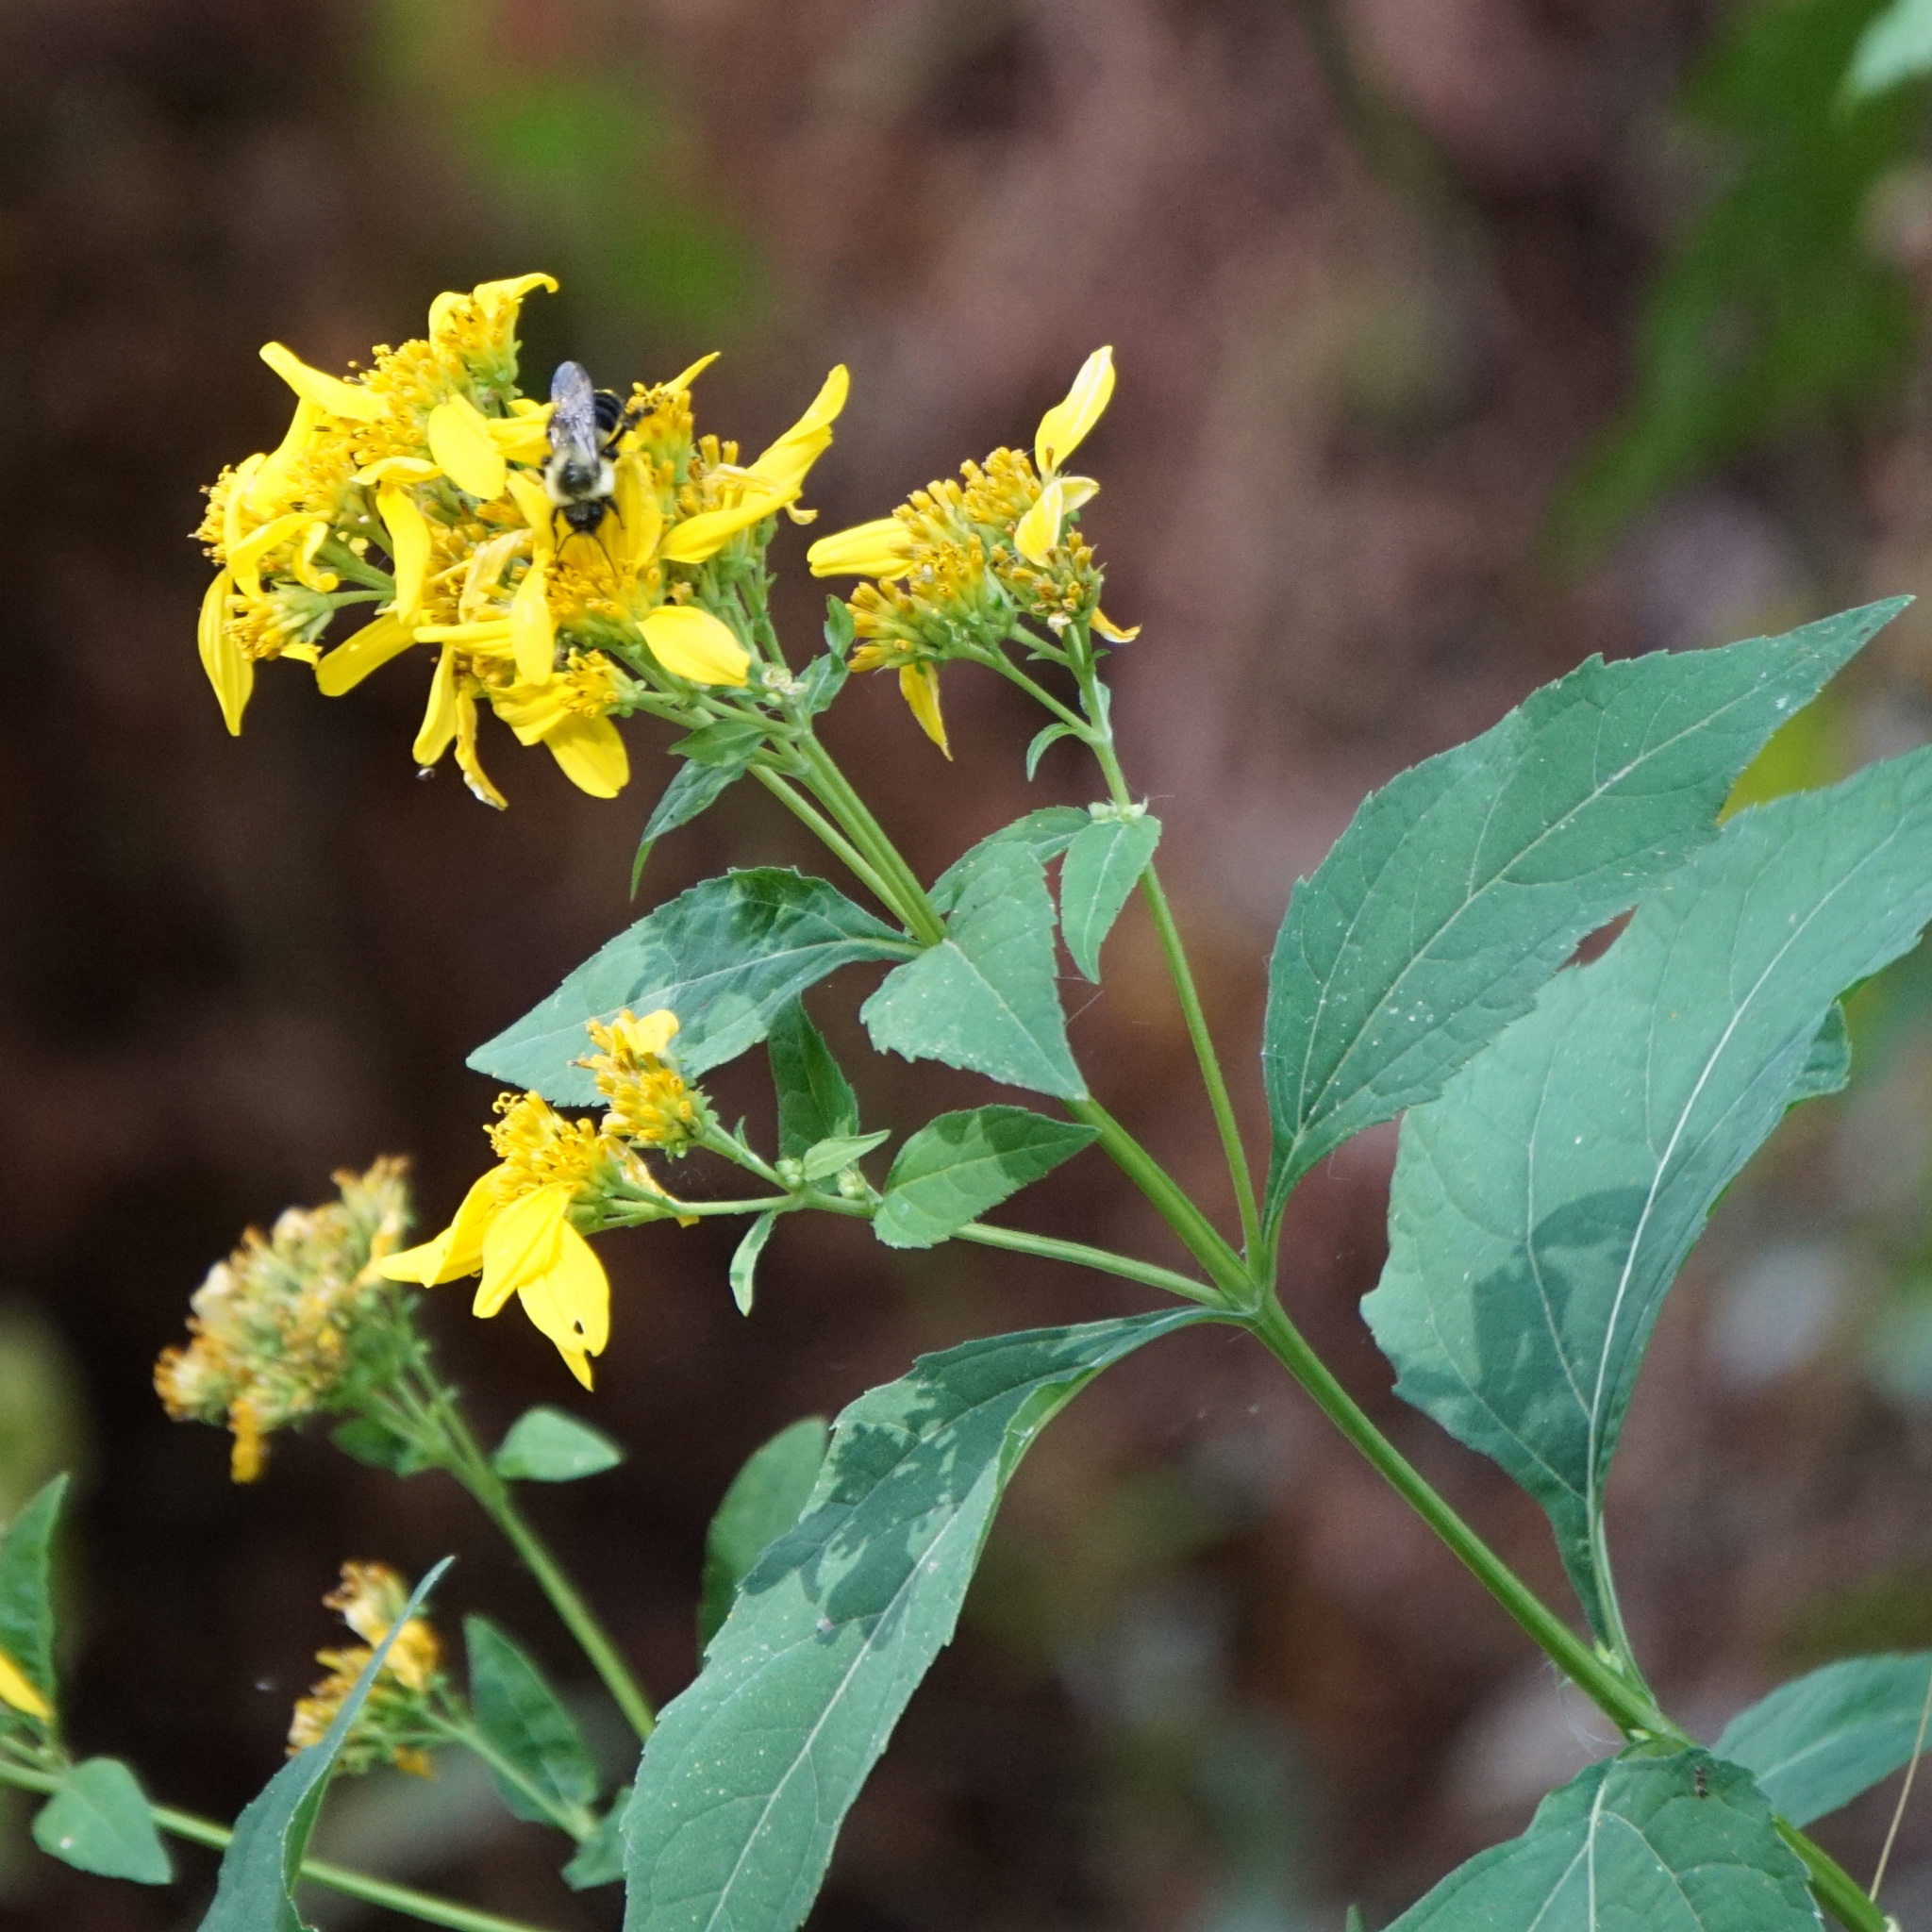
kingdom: Animalia
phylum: Arthropoda
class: Insecta
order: Hymenoptera
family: Apidae
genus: Bombus
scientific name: Bombus impatiens
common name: Common eastern bumble bee
